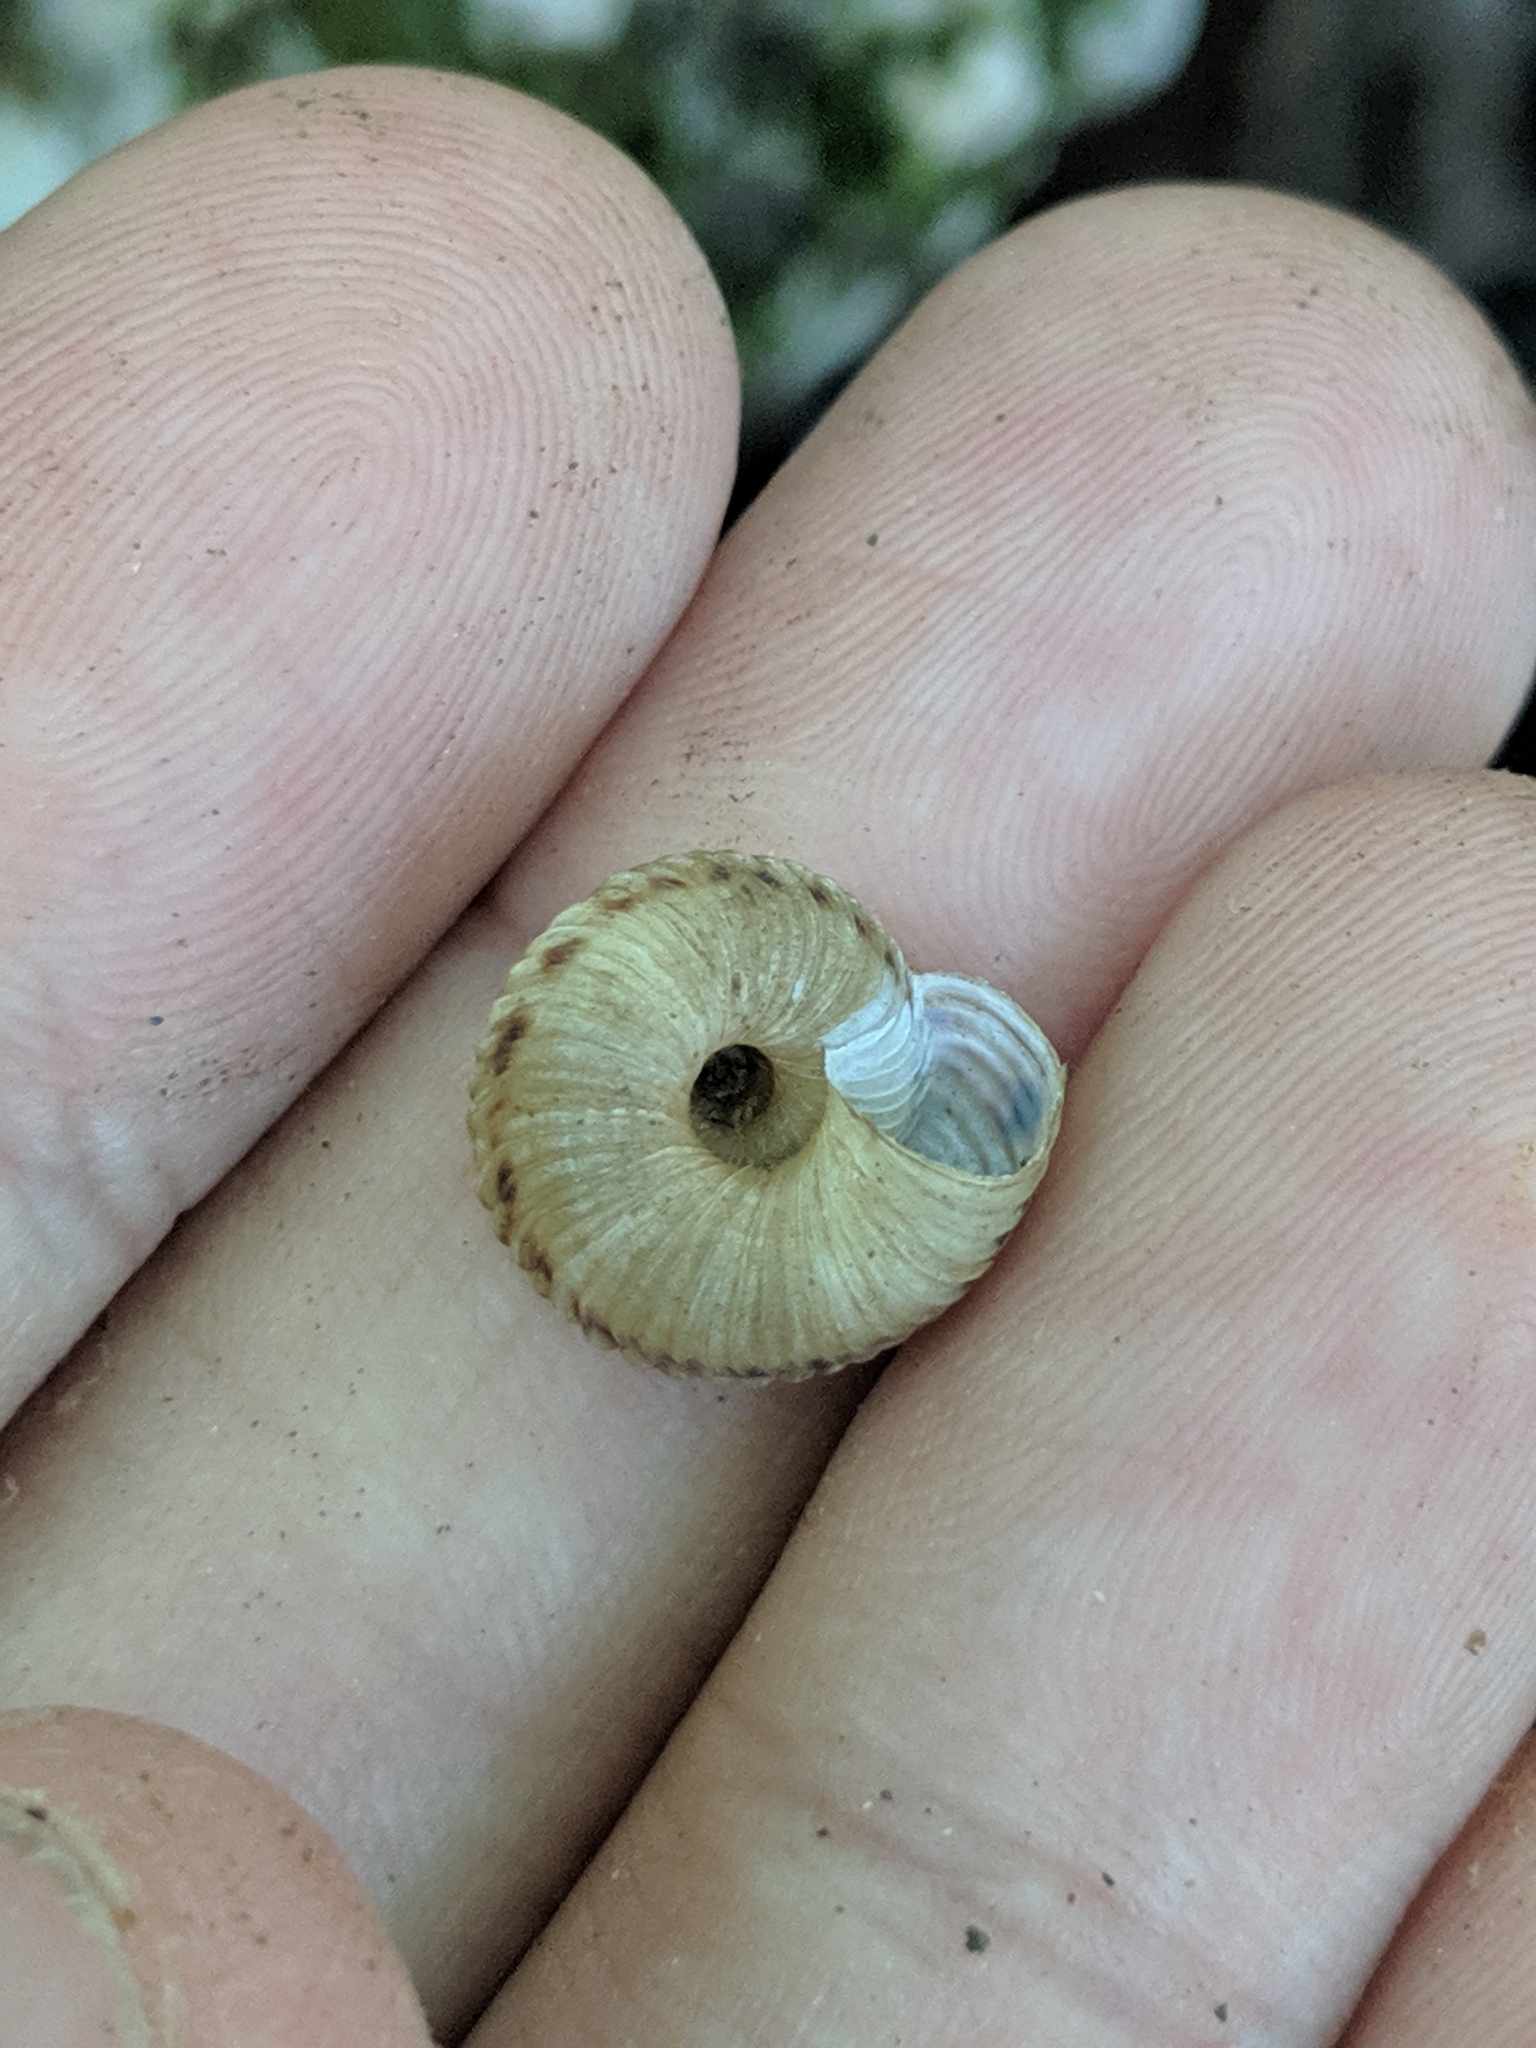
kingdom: Animalia
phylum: Mollusca
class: Gastropoda
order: Stylommatophora
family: Discidae
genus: Anguispira
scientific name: Anguispira alternata
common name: Flamed tigersnail
